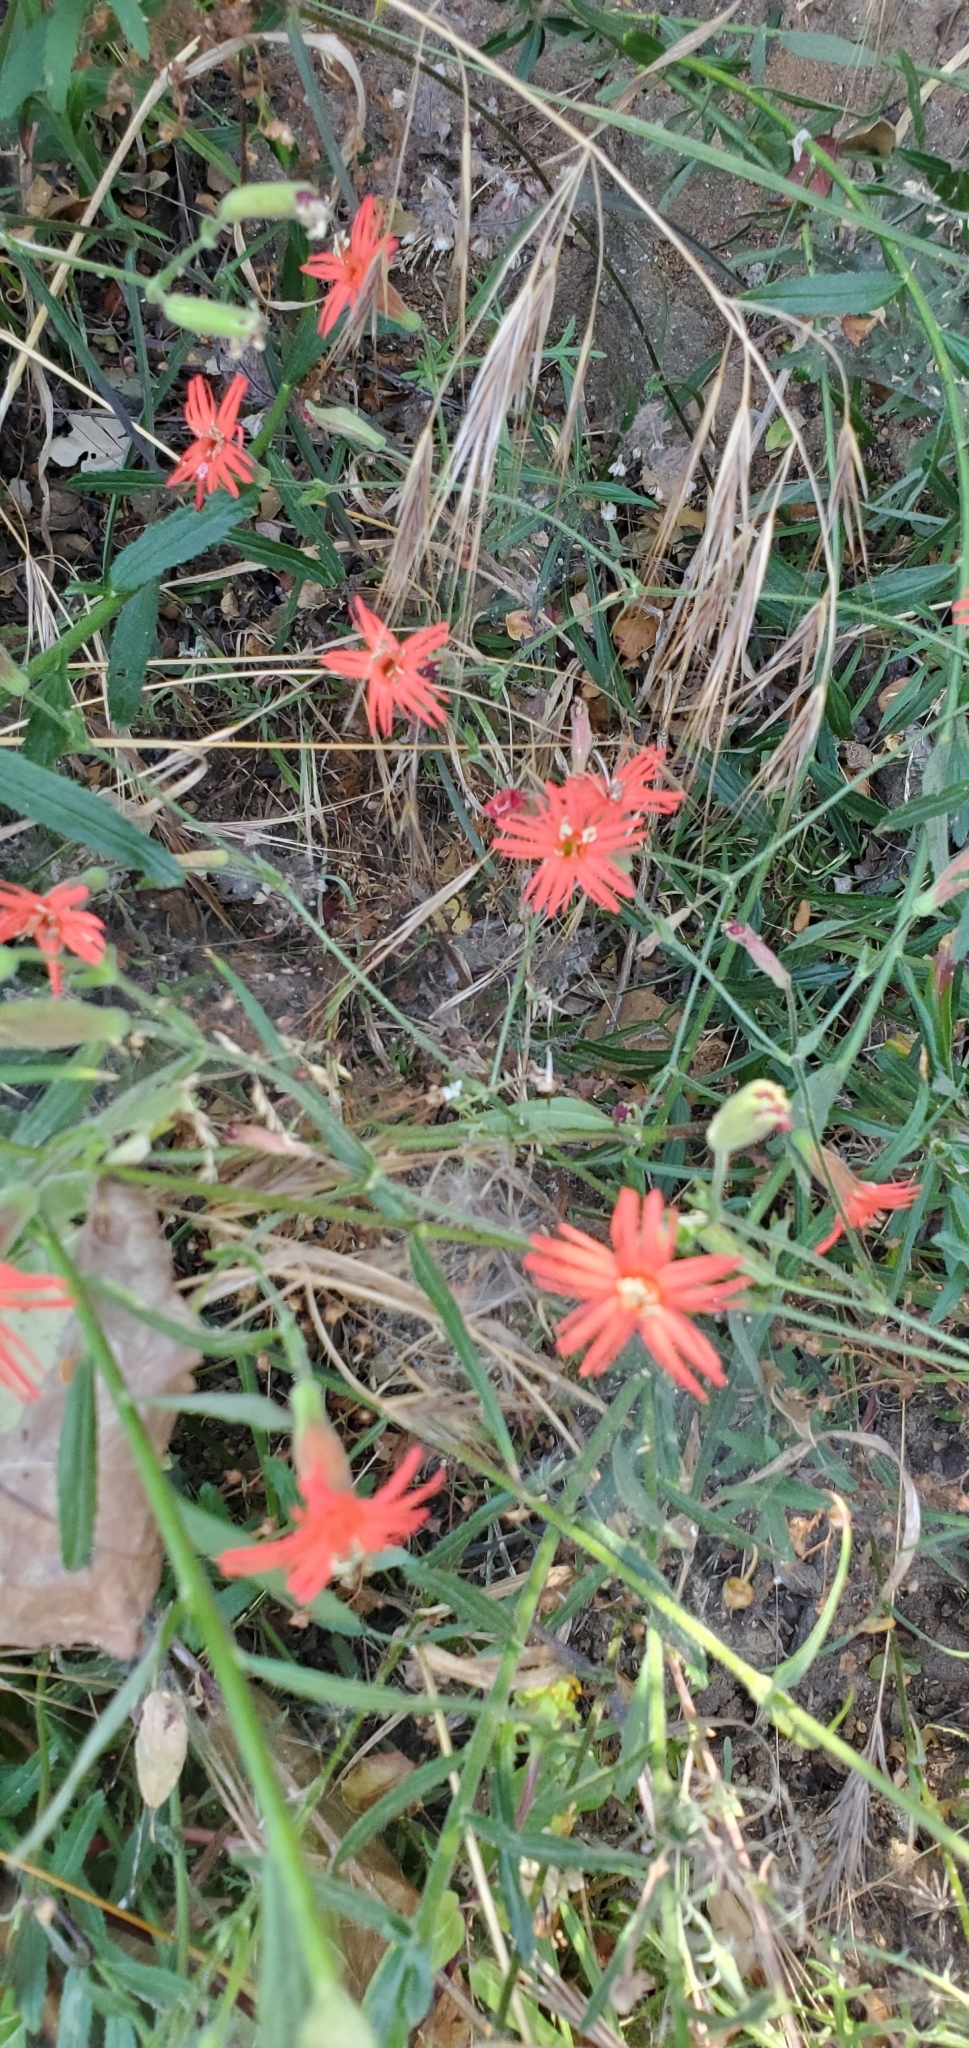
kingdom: Plantae
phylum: Tracheophyta
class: Magnoliopsida
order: Caryophyllales
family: Caryophyllaceae
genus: Silene
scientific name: Silene laciniata
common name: Indian-pink
